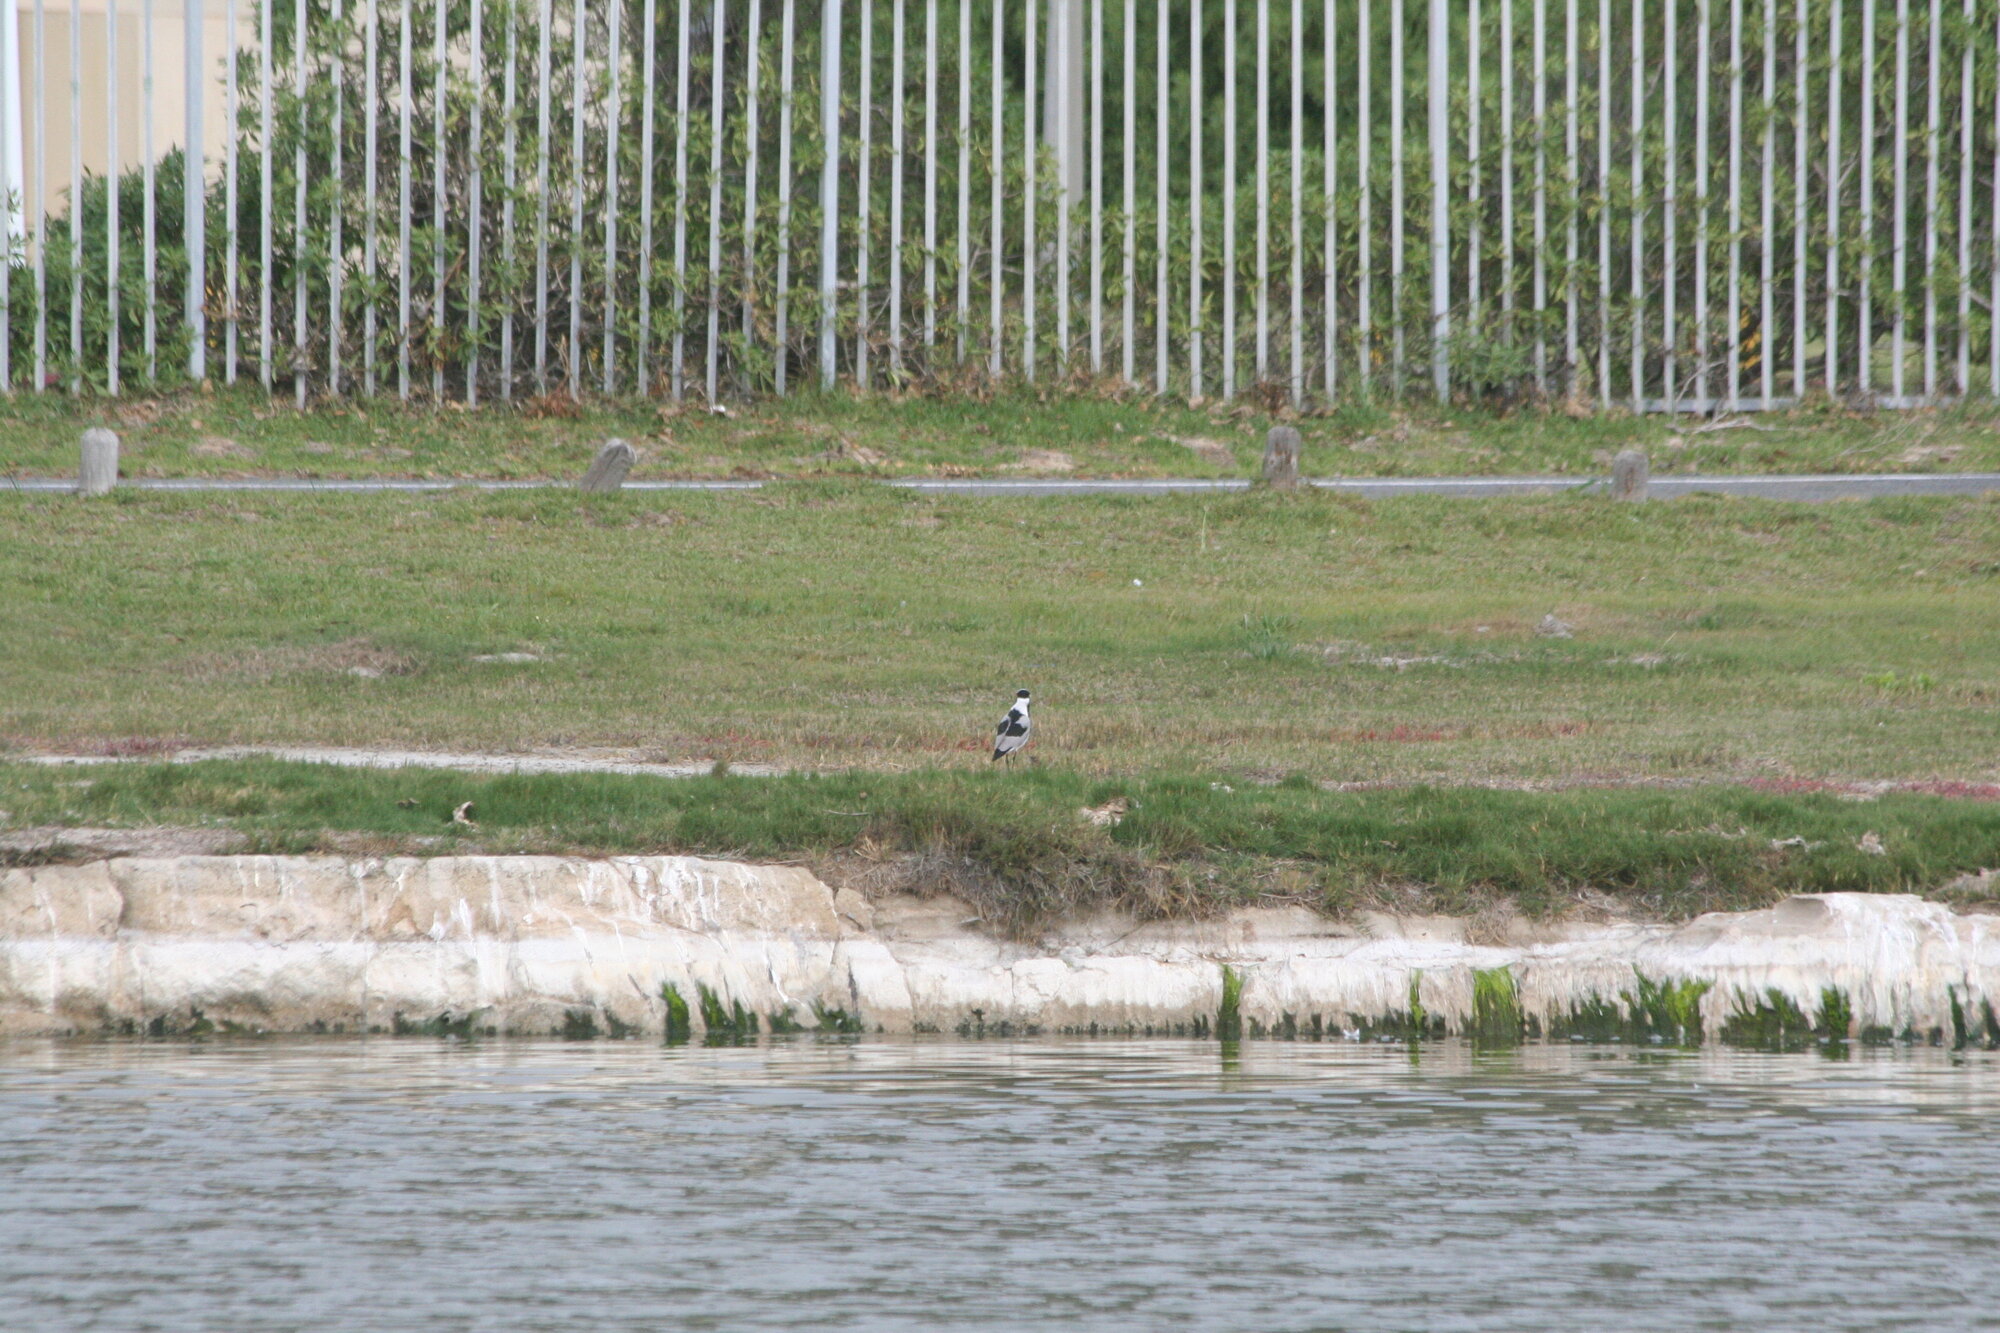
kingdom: Animalia
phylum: Chordata
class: Aves
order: Charadriiformes
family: Charadriidae
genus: Vanellus
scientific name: Vanellus armatus
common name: Blacksmith lapwing
